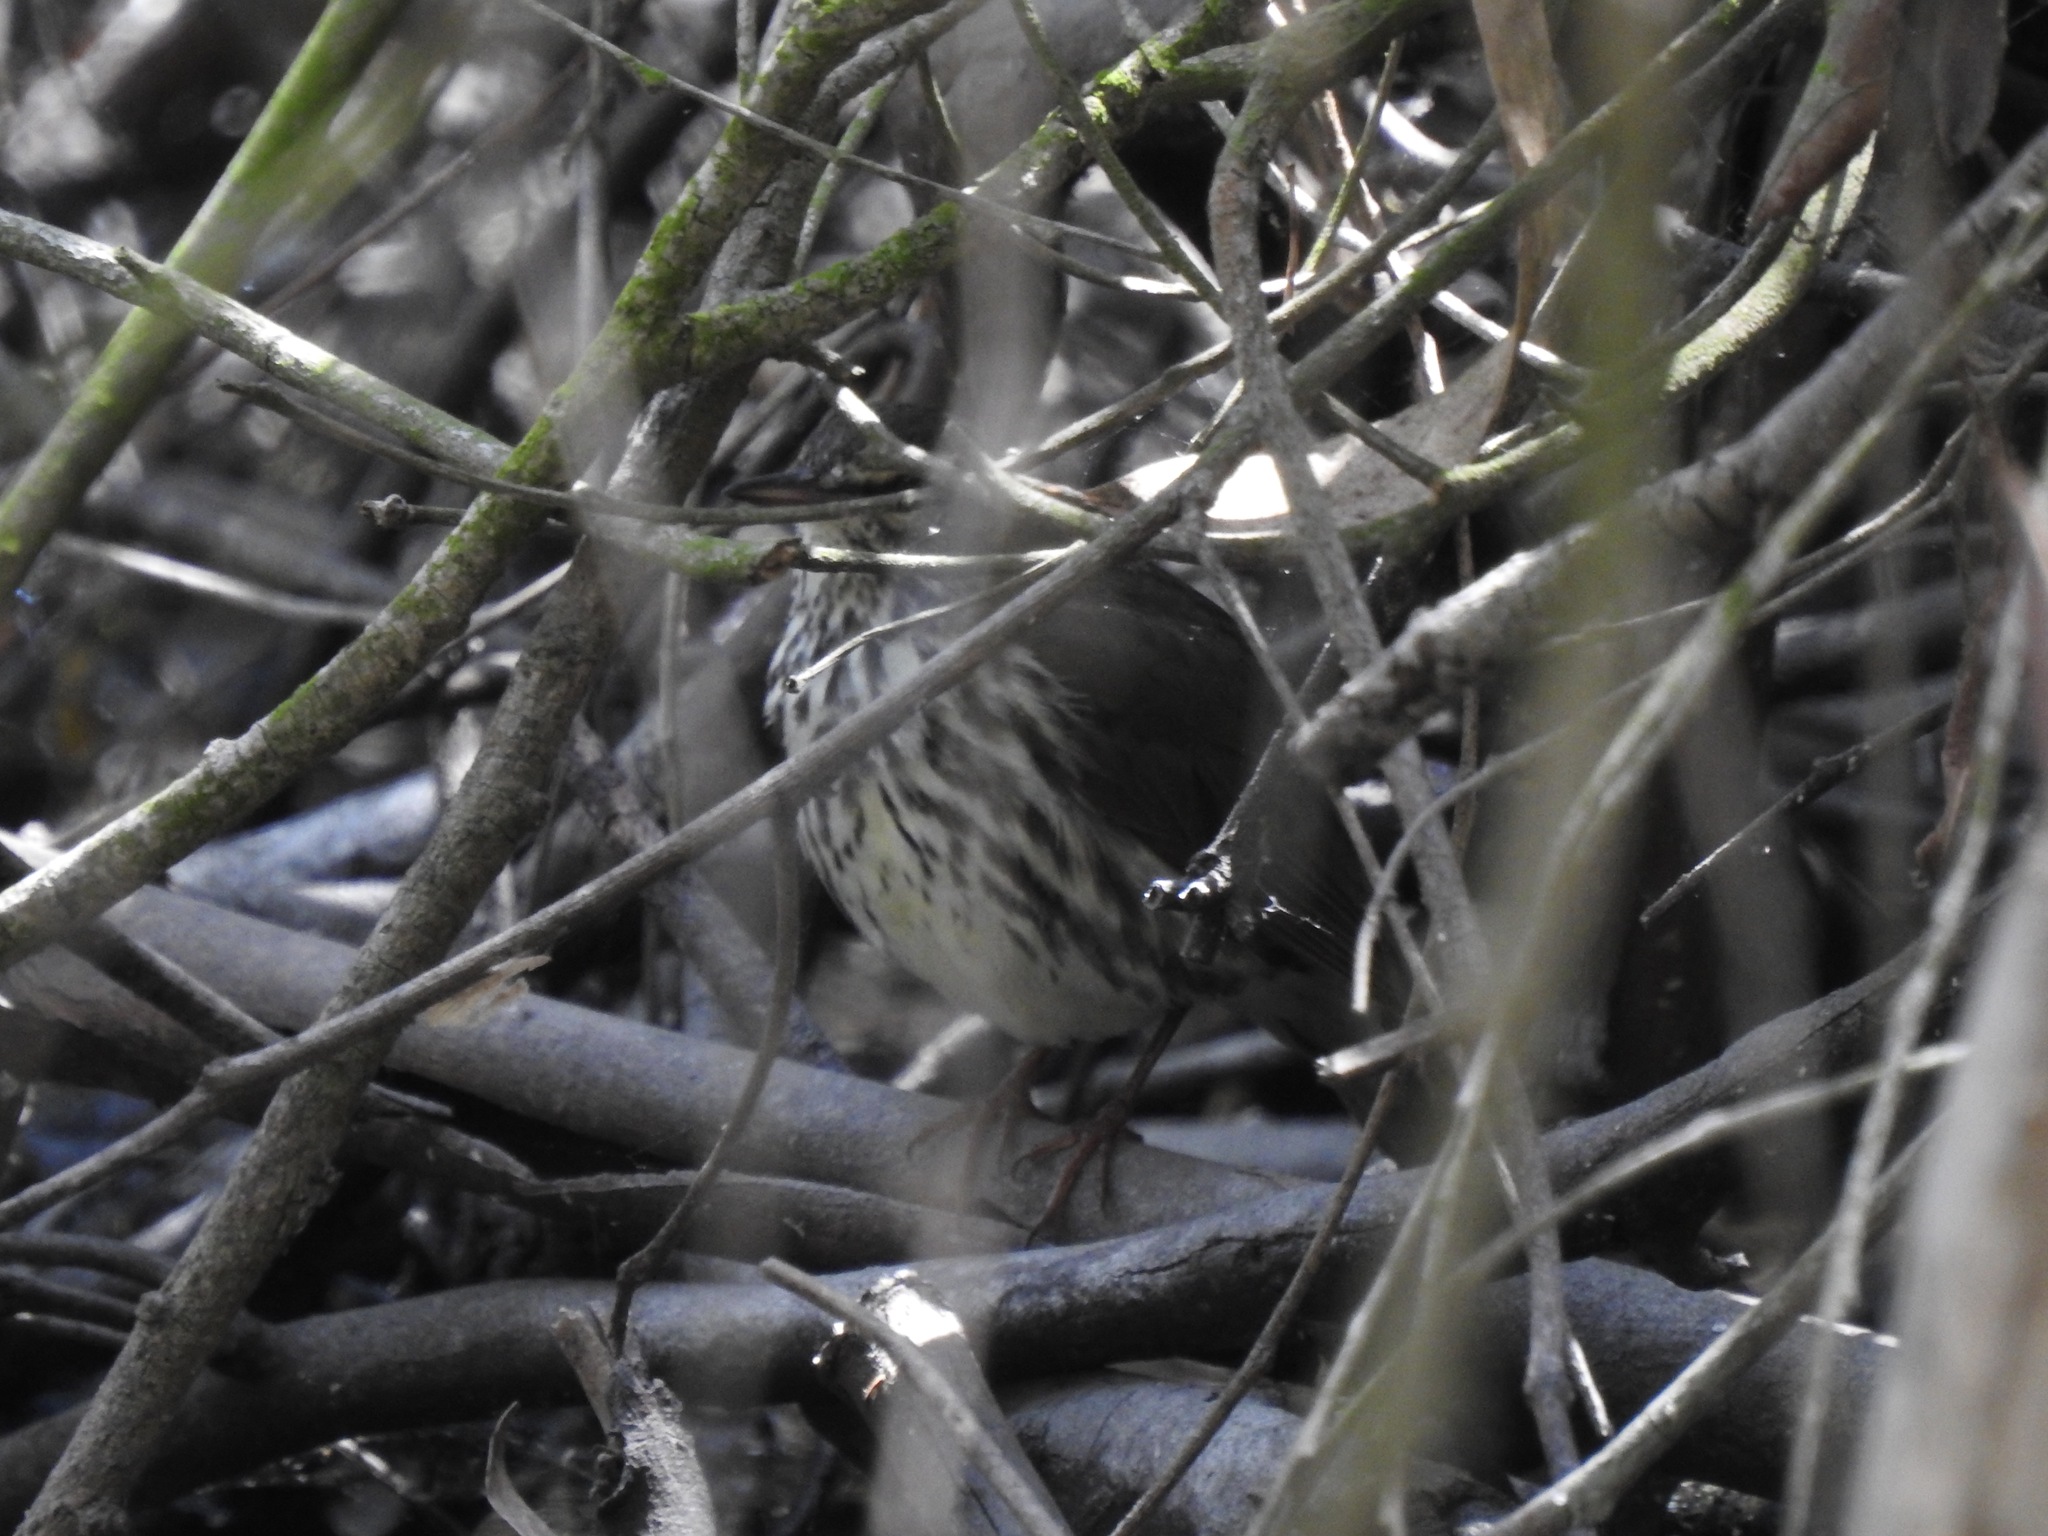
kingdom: Animalia
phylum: Chordata
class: Aves
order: Passeriformes
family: Parulidae
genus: Parkesia
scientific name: Parkesia noveboracensis
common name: Northern waterthrush
